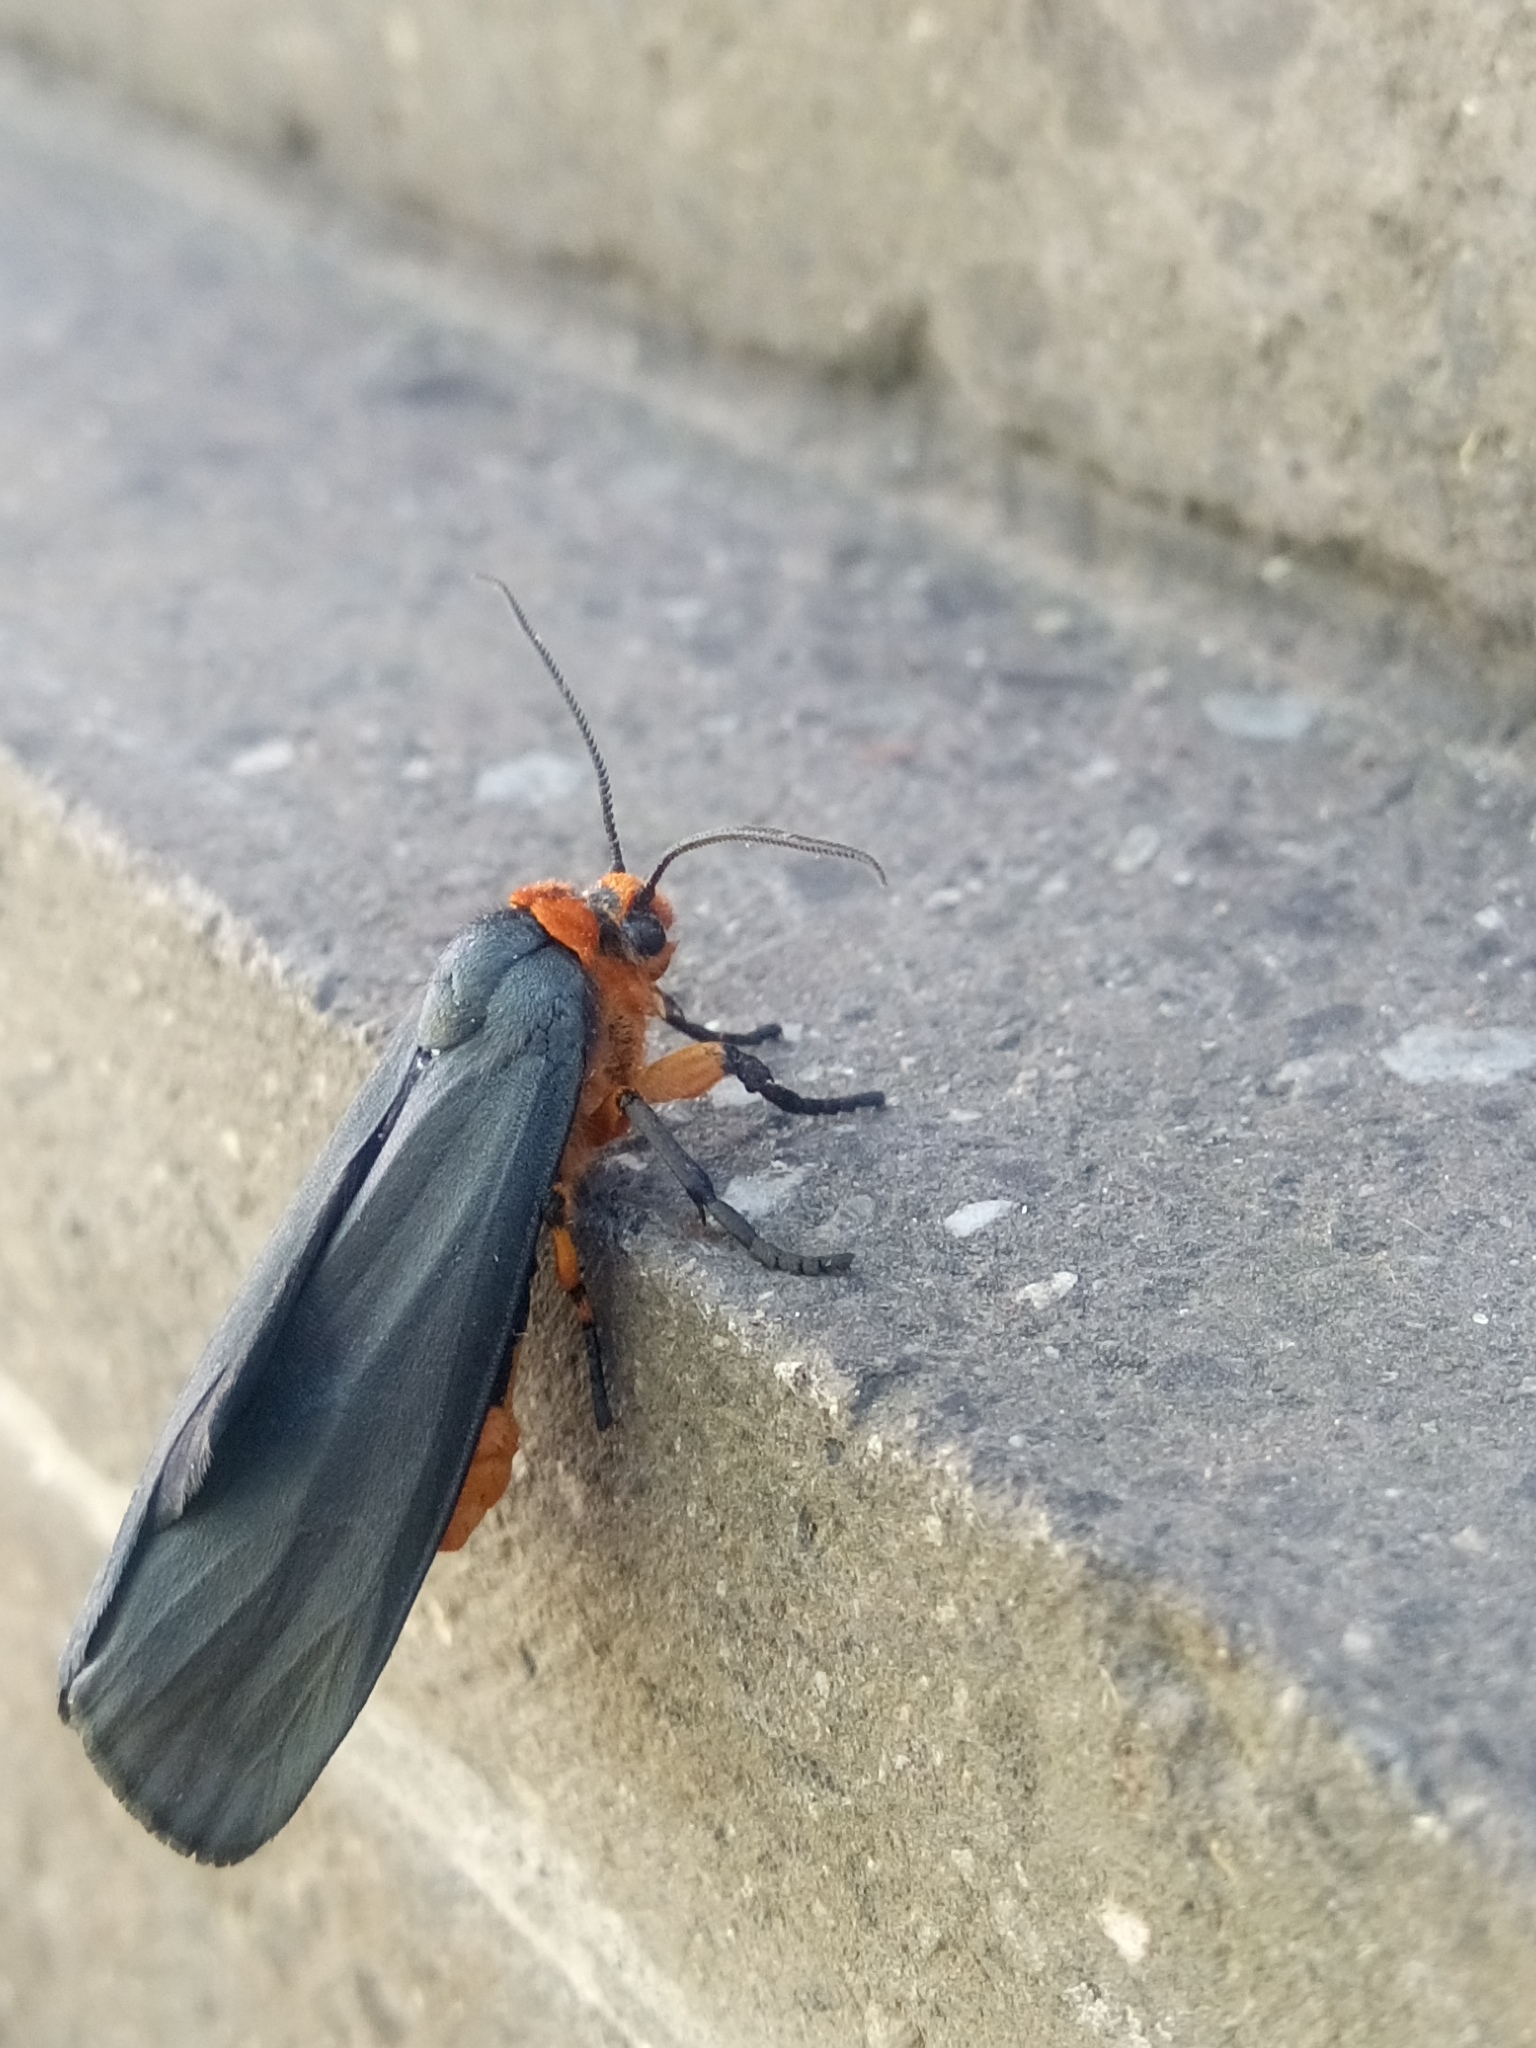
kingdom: Animalia
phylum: Arthropoda
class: Insecta
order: Lepidoptera
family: Erebidae
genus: Gnamptonychia
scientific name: Gnamptonychia ventralis
